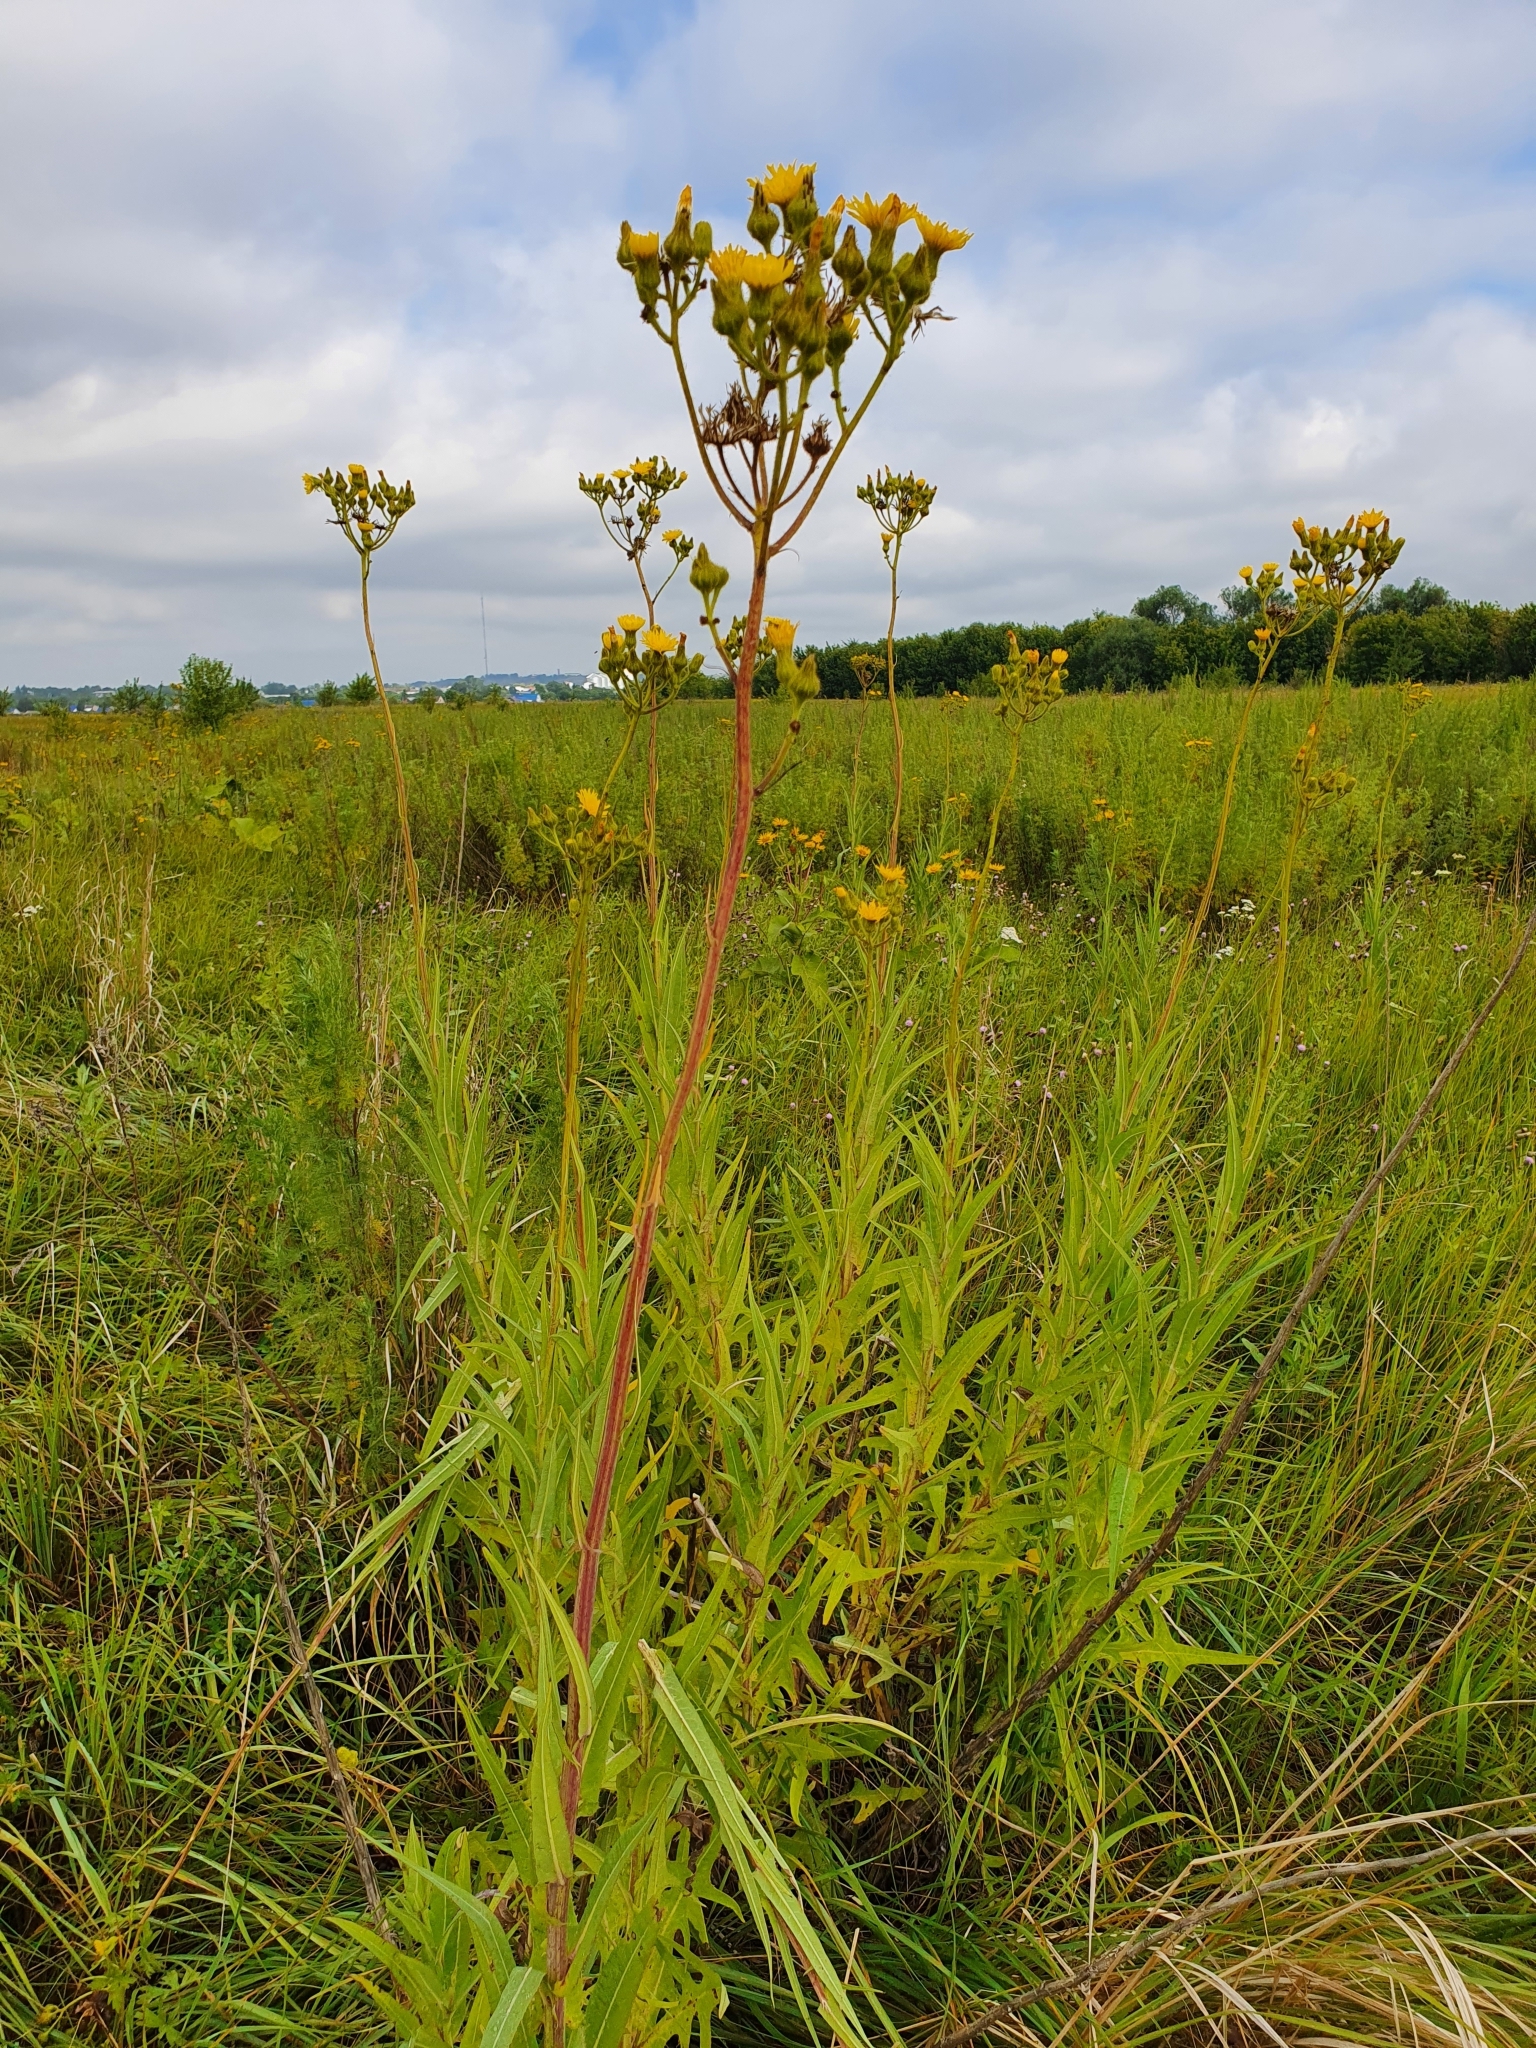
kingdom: Plantae
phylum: Tracheophyta
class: Magnoliopsida
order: Asterales
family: Asteraceae
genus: Sonchus
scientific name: Sonchus palustris
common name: Marsh sow-thistle
